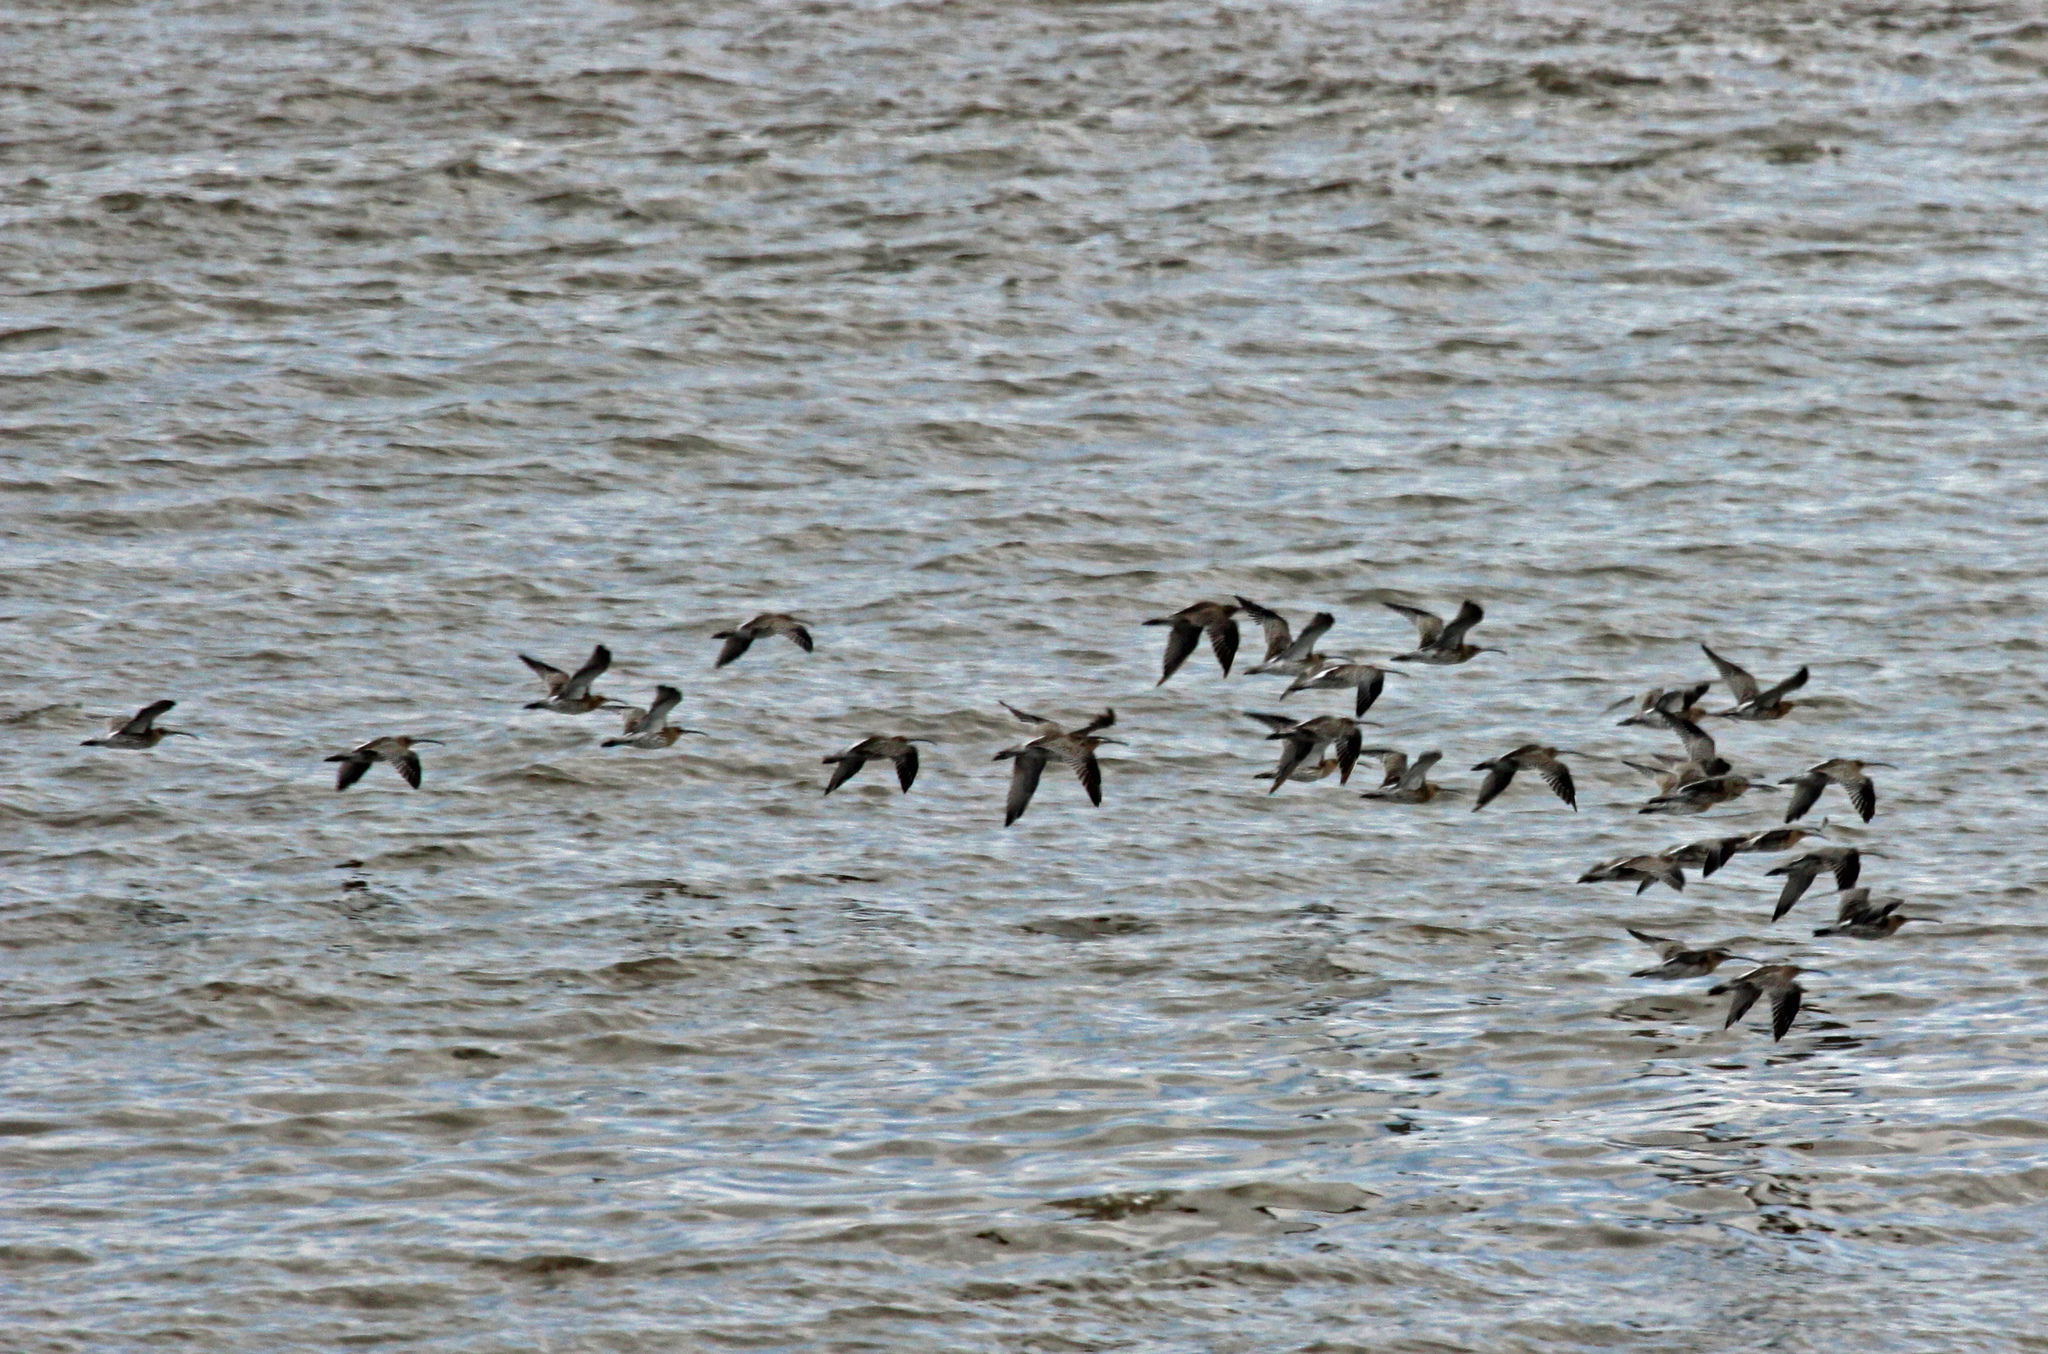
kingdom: Animalia
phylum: Chordata
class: Aves
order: Charadriiformes
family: Scolopacidae
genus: Numenius
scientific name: Numenius arquata
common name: Eurasian curlew
